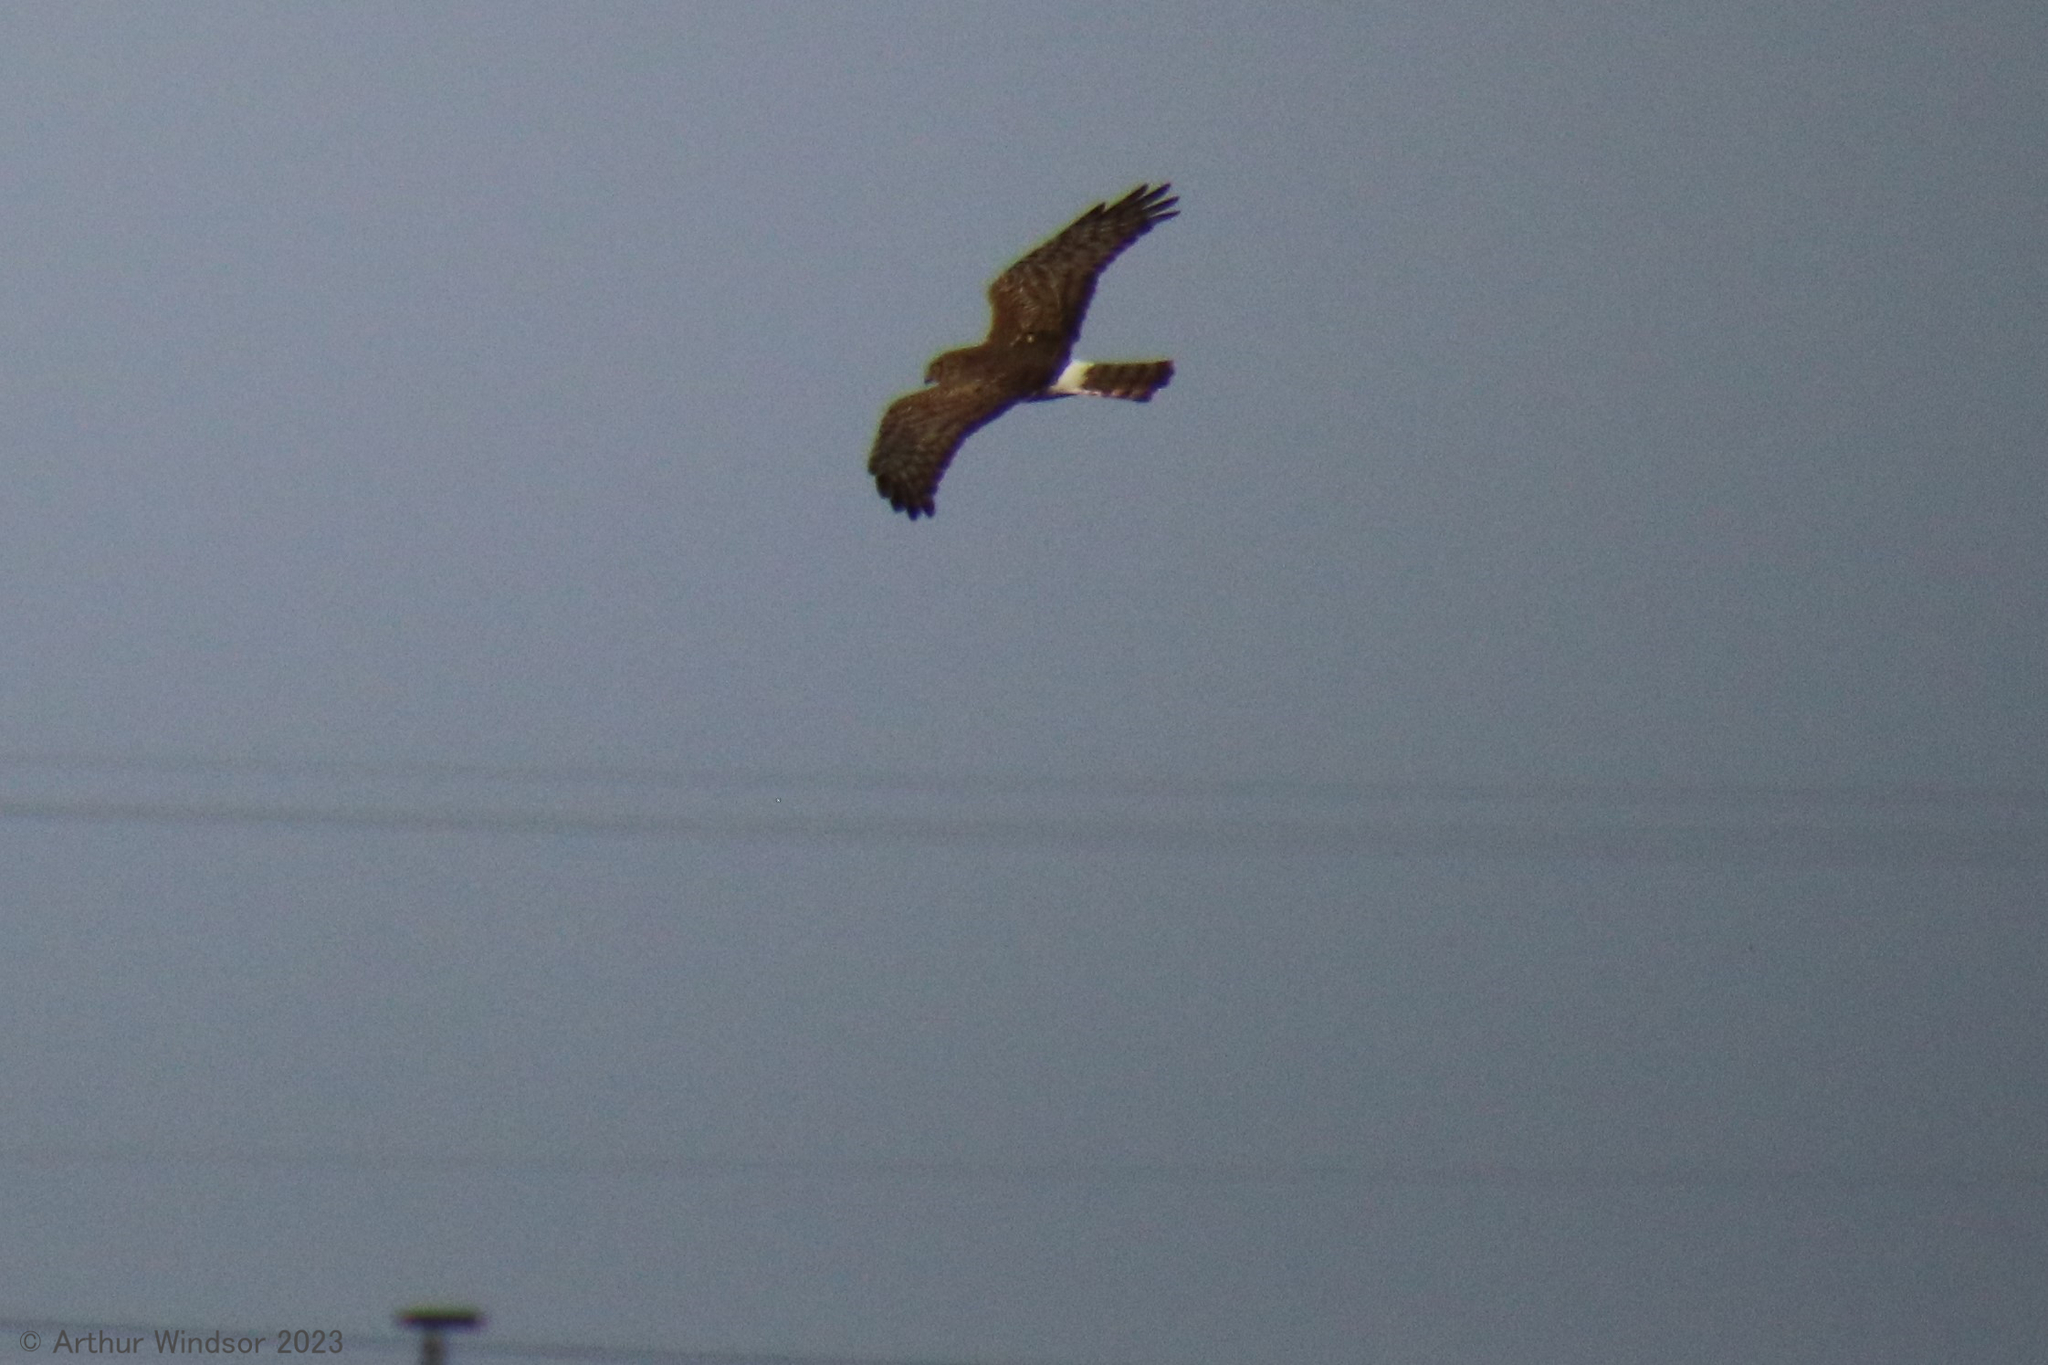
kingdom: Animalia
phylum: Chordata
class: Aves
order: Accipitriformes
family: Accipitridae
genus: Circus
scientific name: Circus cyaneus
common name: Hen harrier
